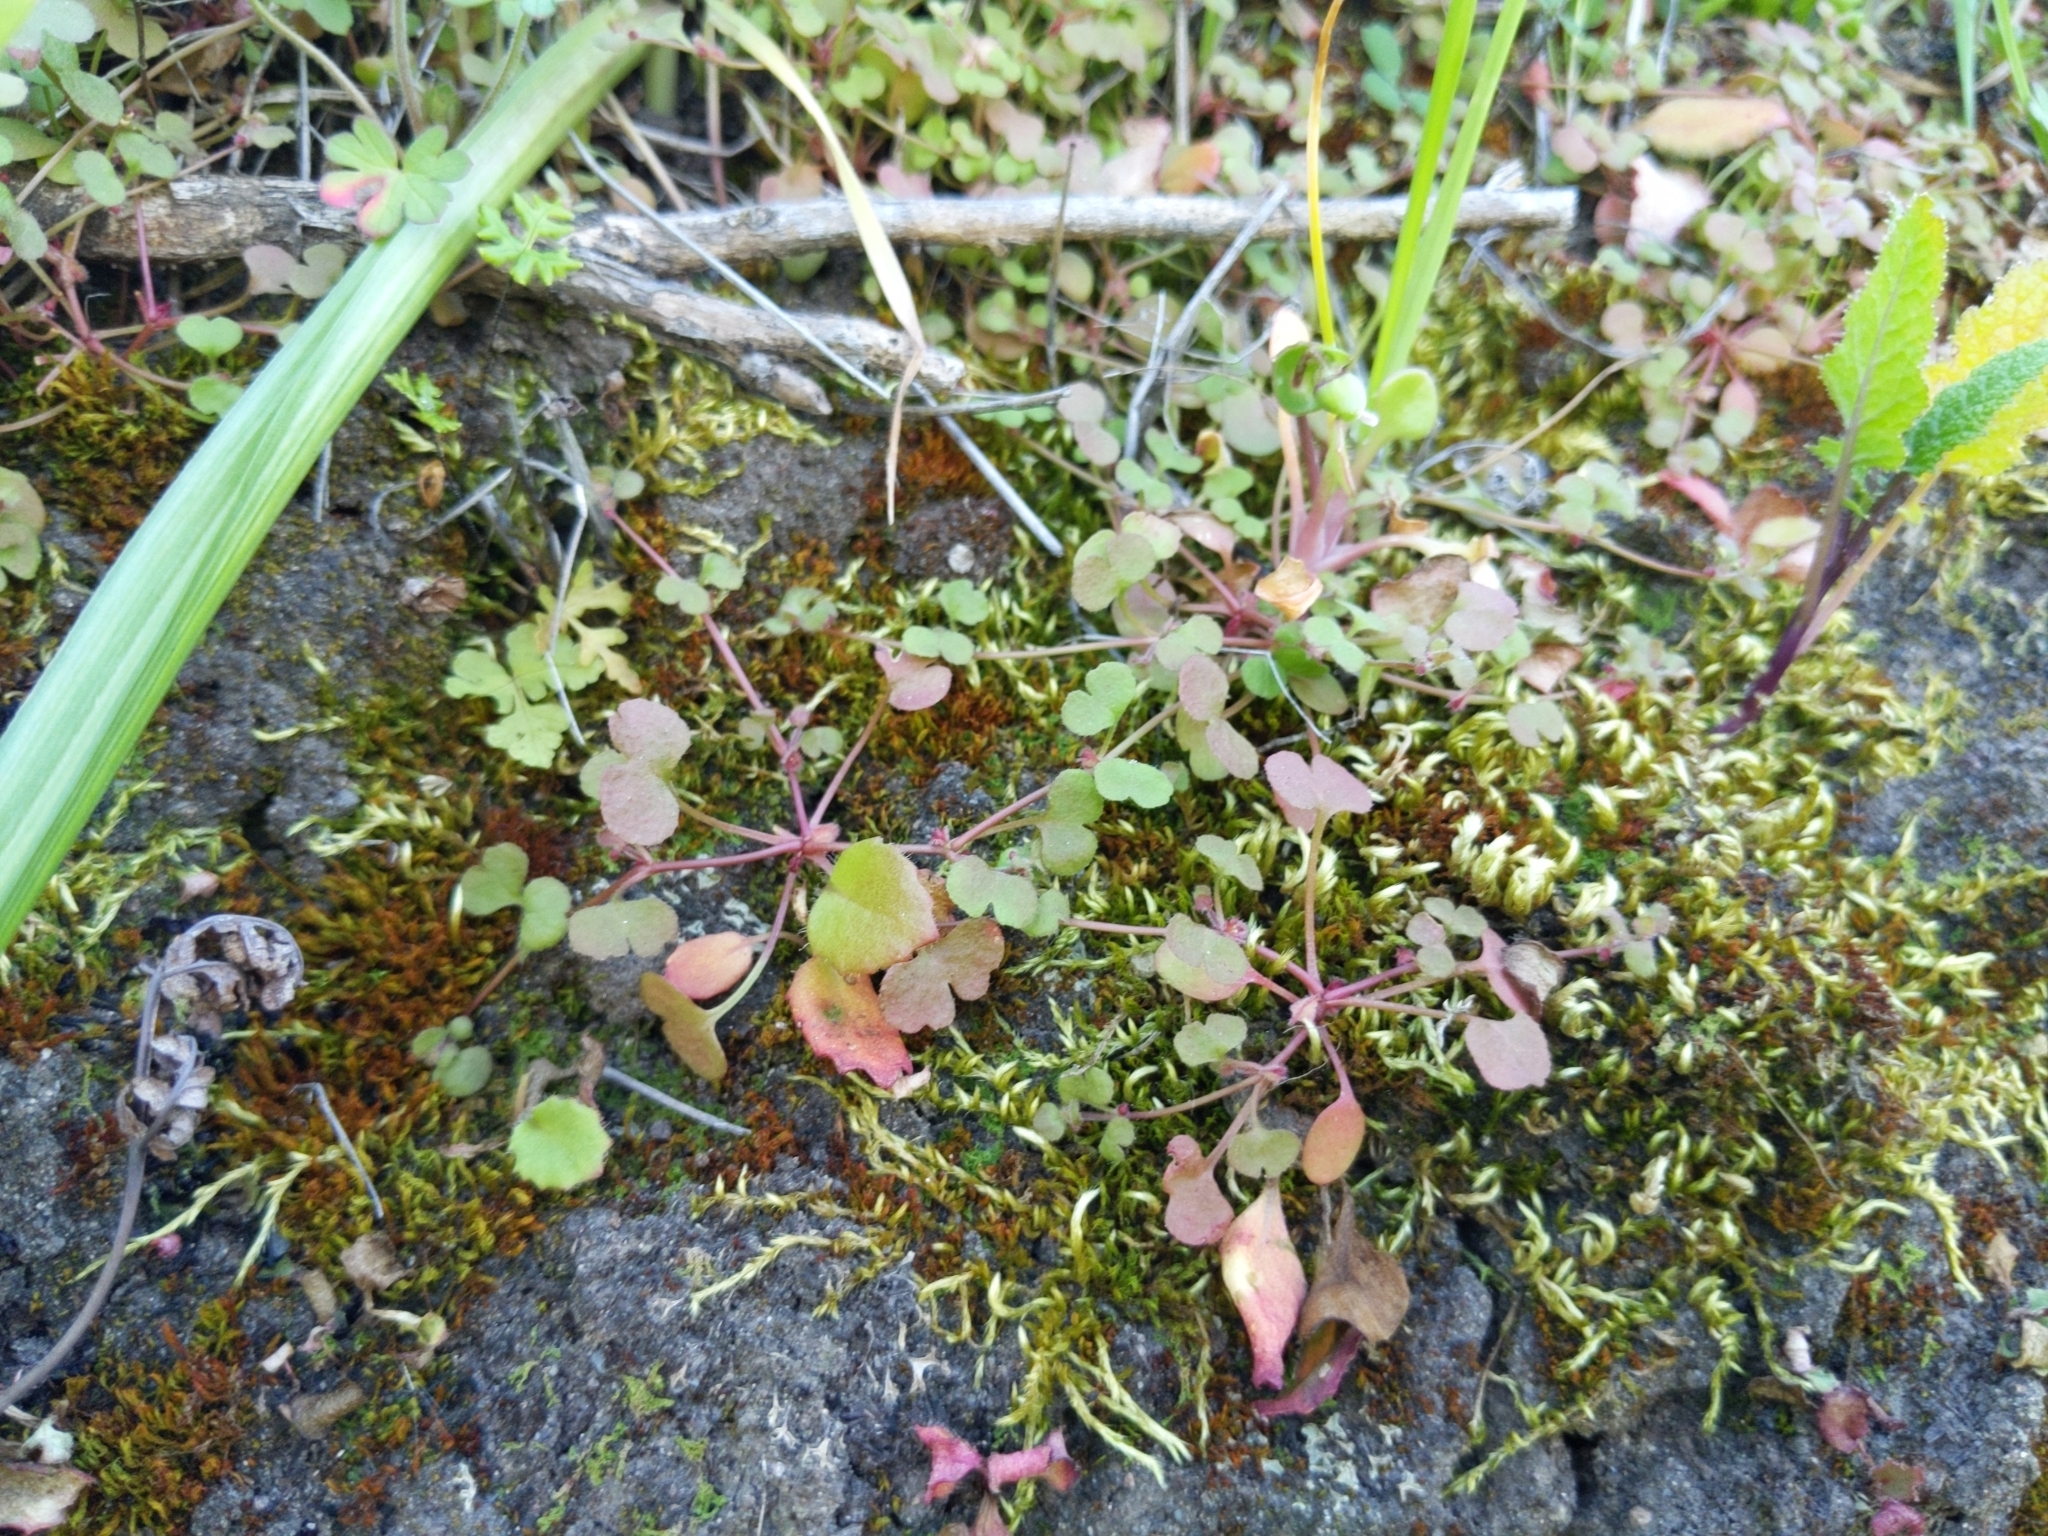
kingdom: Plantae
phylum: Tracheophyta
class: Magnoliopsida
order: Caryophyllales
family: Polygonaceae
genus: Pterostegia
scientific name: Pterostegia drymarioides
